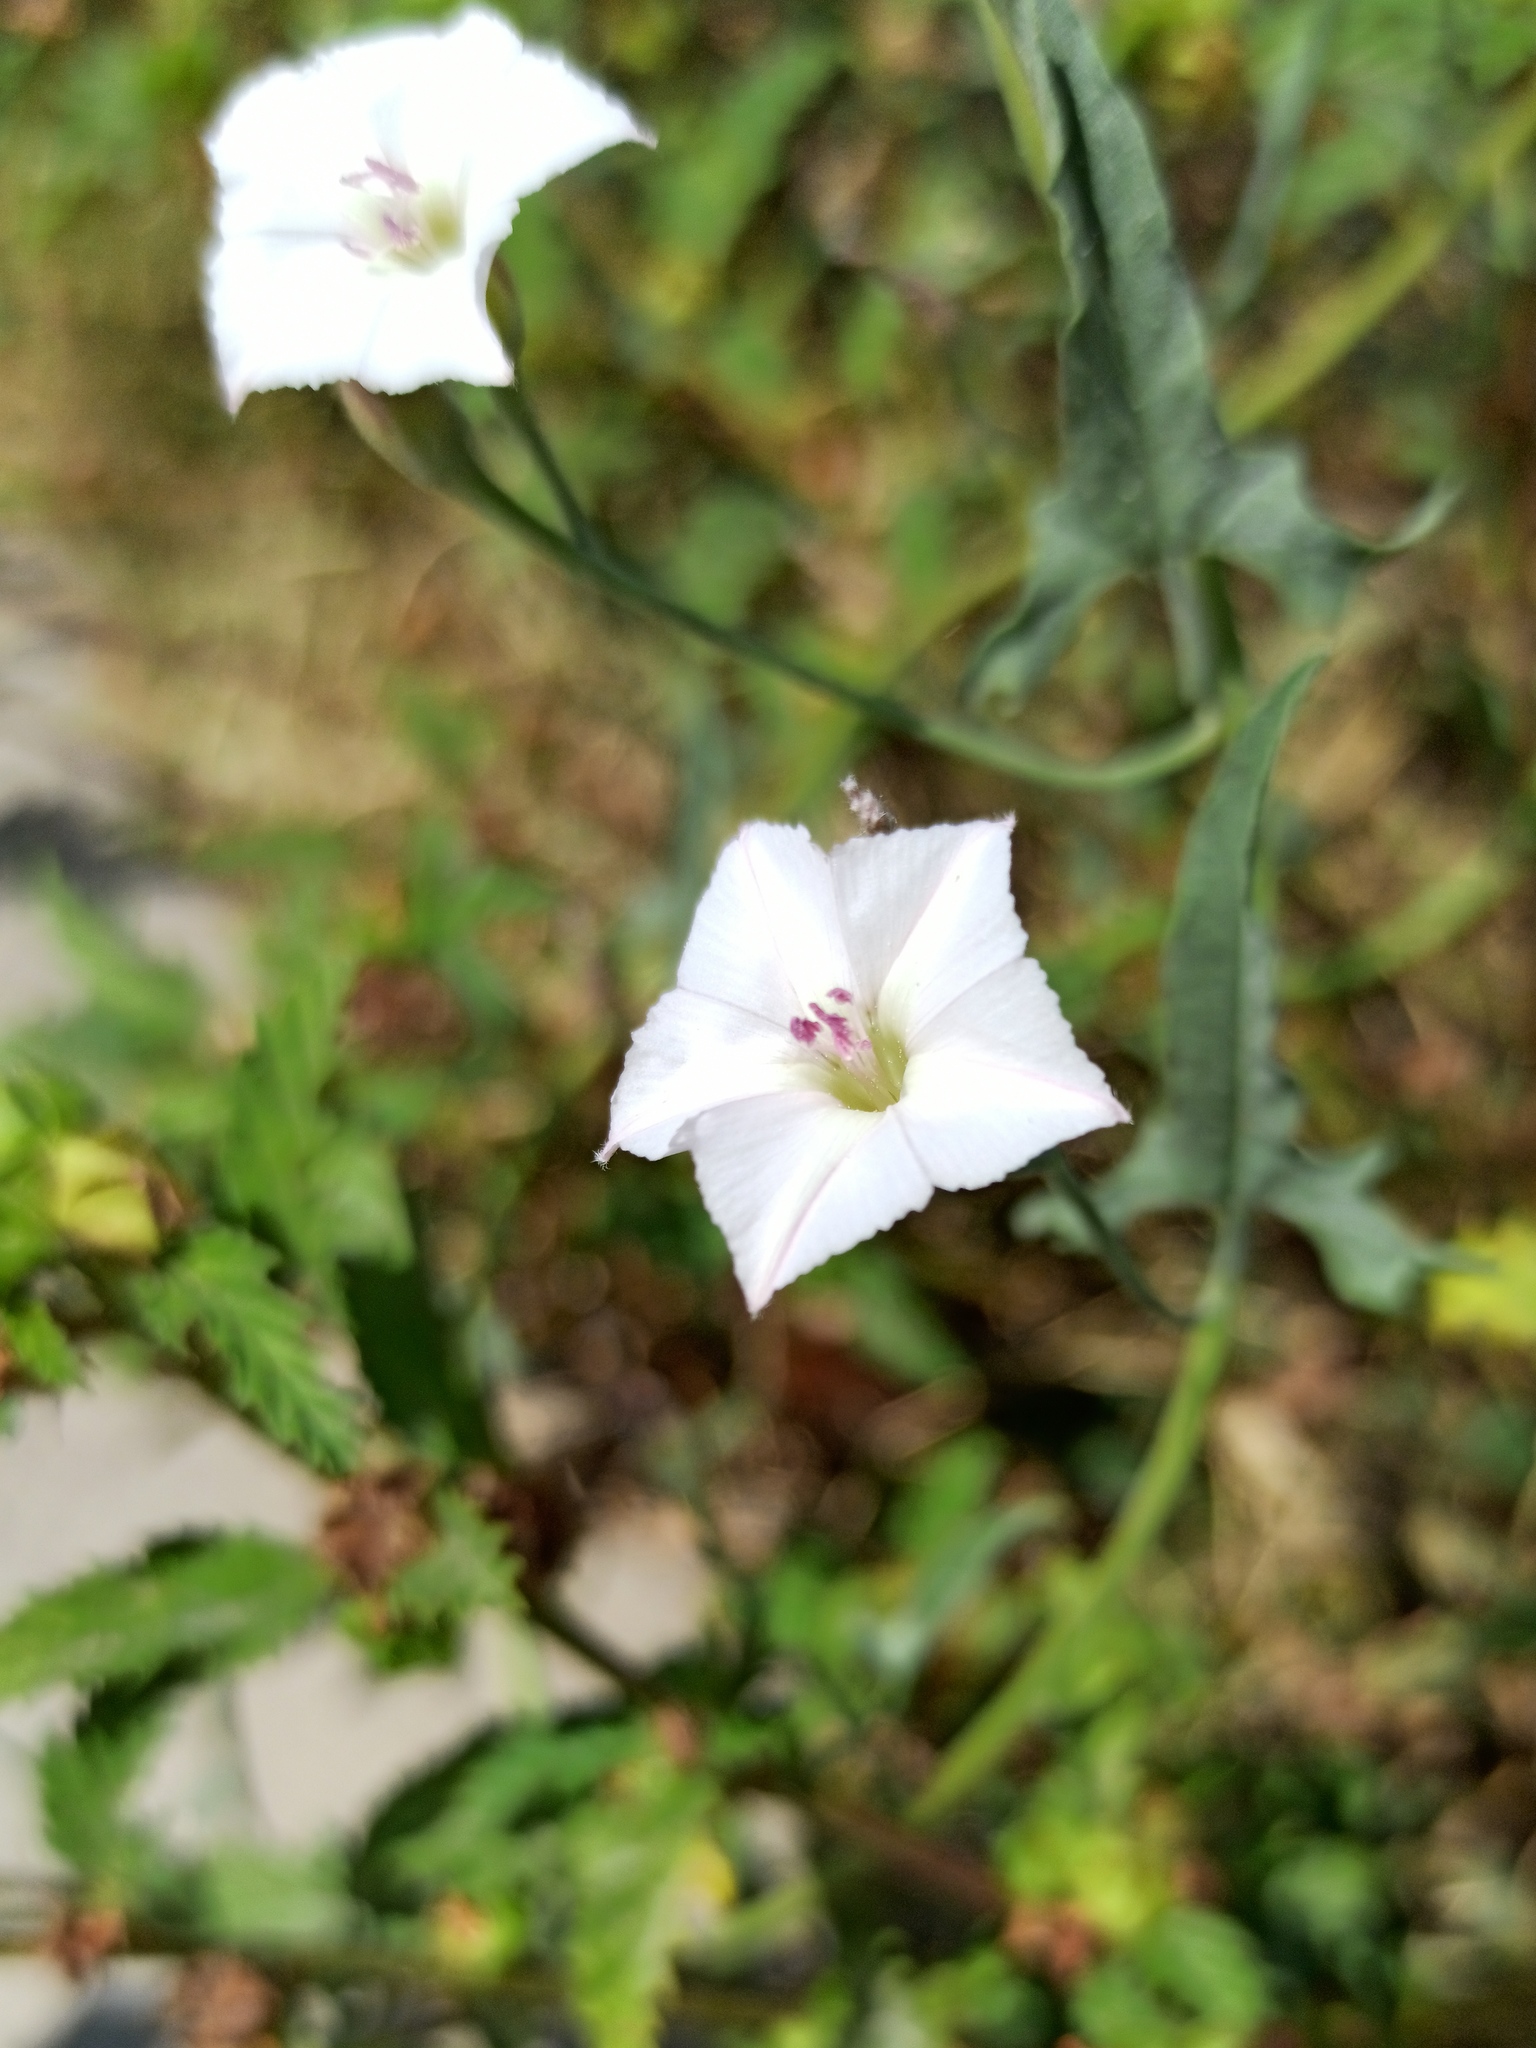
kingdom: Plantae
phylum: Tracheophyta
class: Magnoliopsida
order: Solanales
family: Convolvulaceae
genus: Convolvulus
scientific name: Convolvulus equitans
